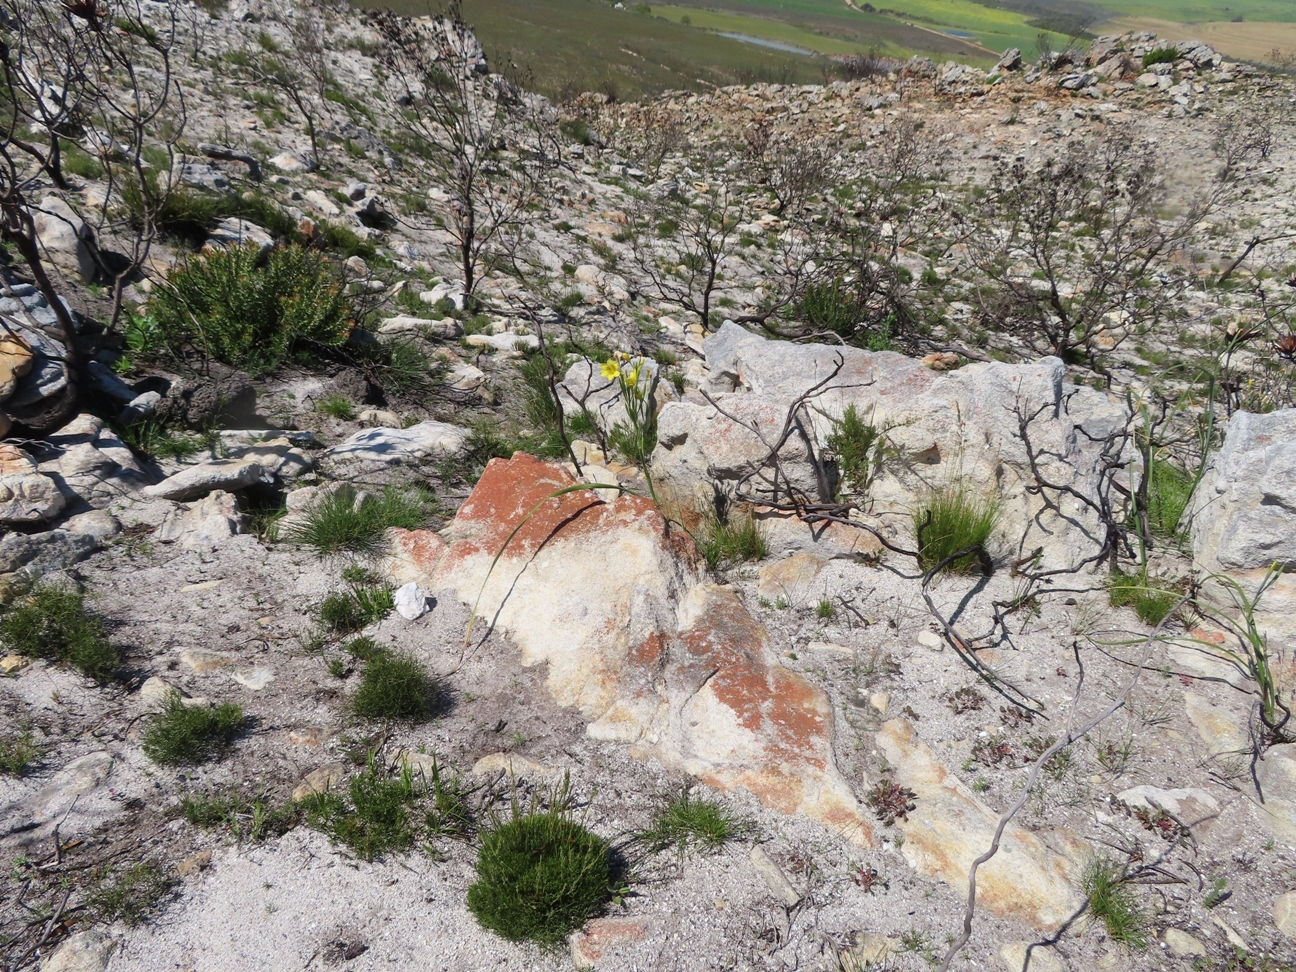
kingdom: Plantae
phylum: Tracheophyta
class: Liliopsida
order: Asparagales
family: Iridaceae
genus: Moraea
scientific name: Moraea ochroleuca
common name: Red tulp
